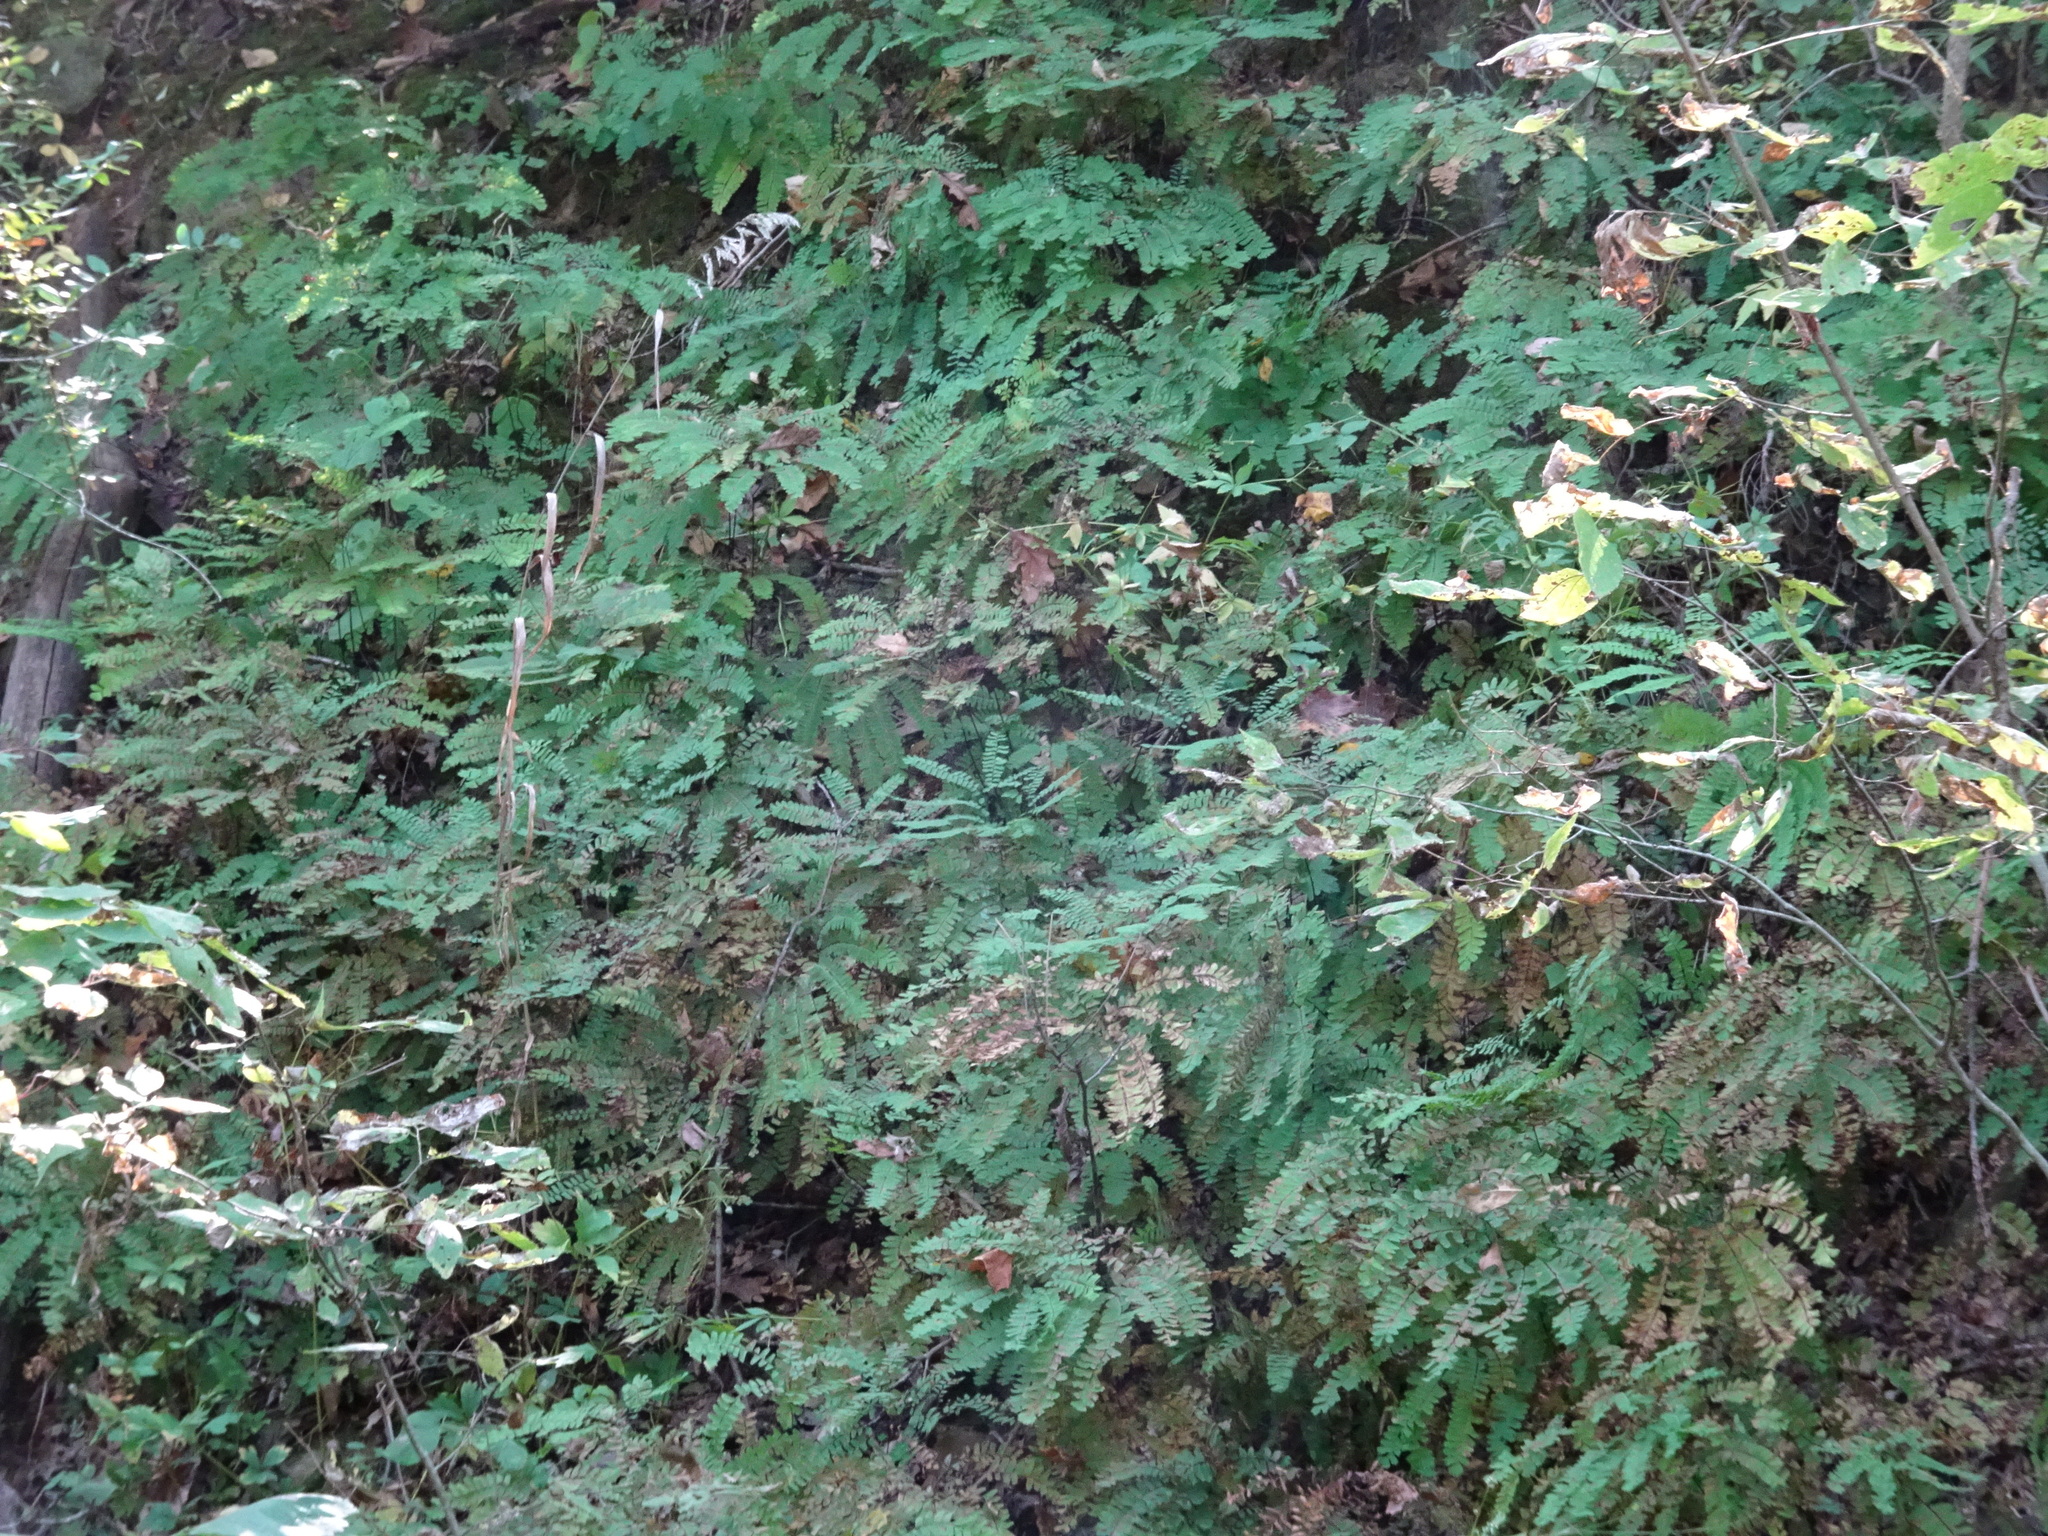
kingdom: Plantae
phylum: Tracheophyta
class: Polypodiopsida
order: Polypodiales
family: Pteridaceae
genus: Adiantum
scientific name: Adiantum pedatum
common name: Five-finger fern
